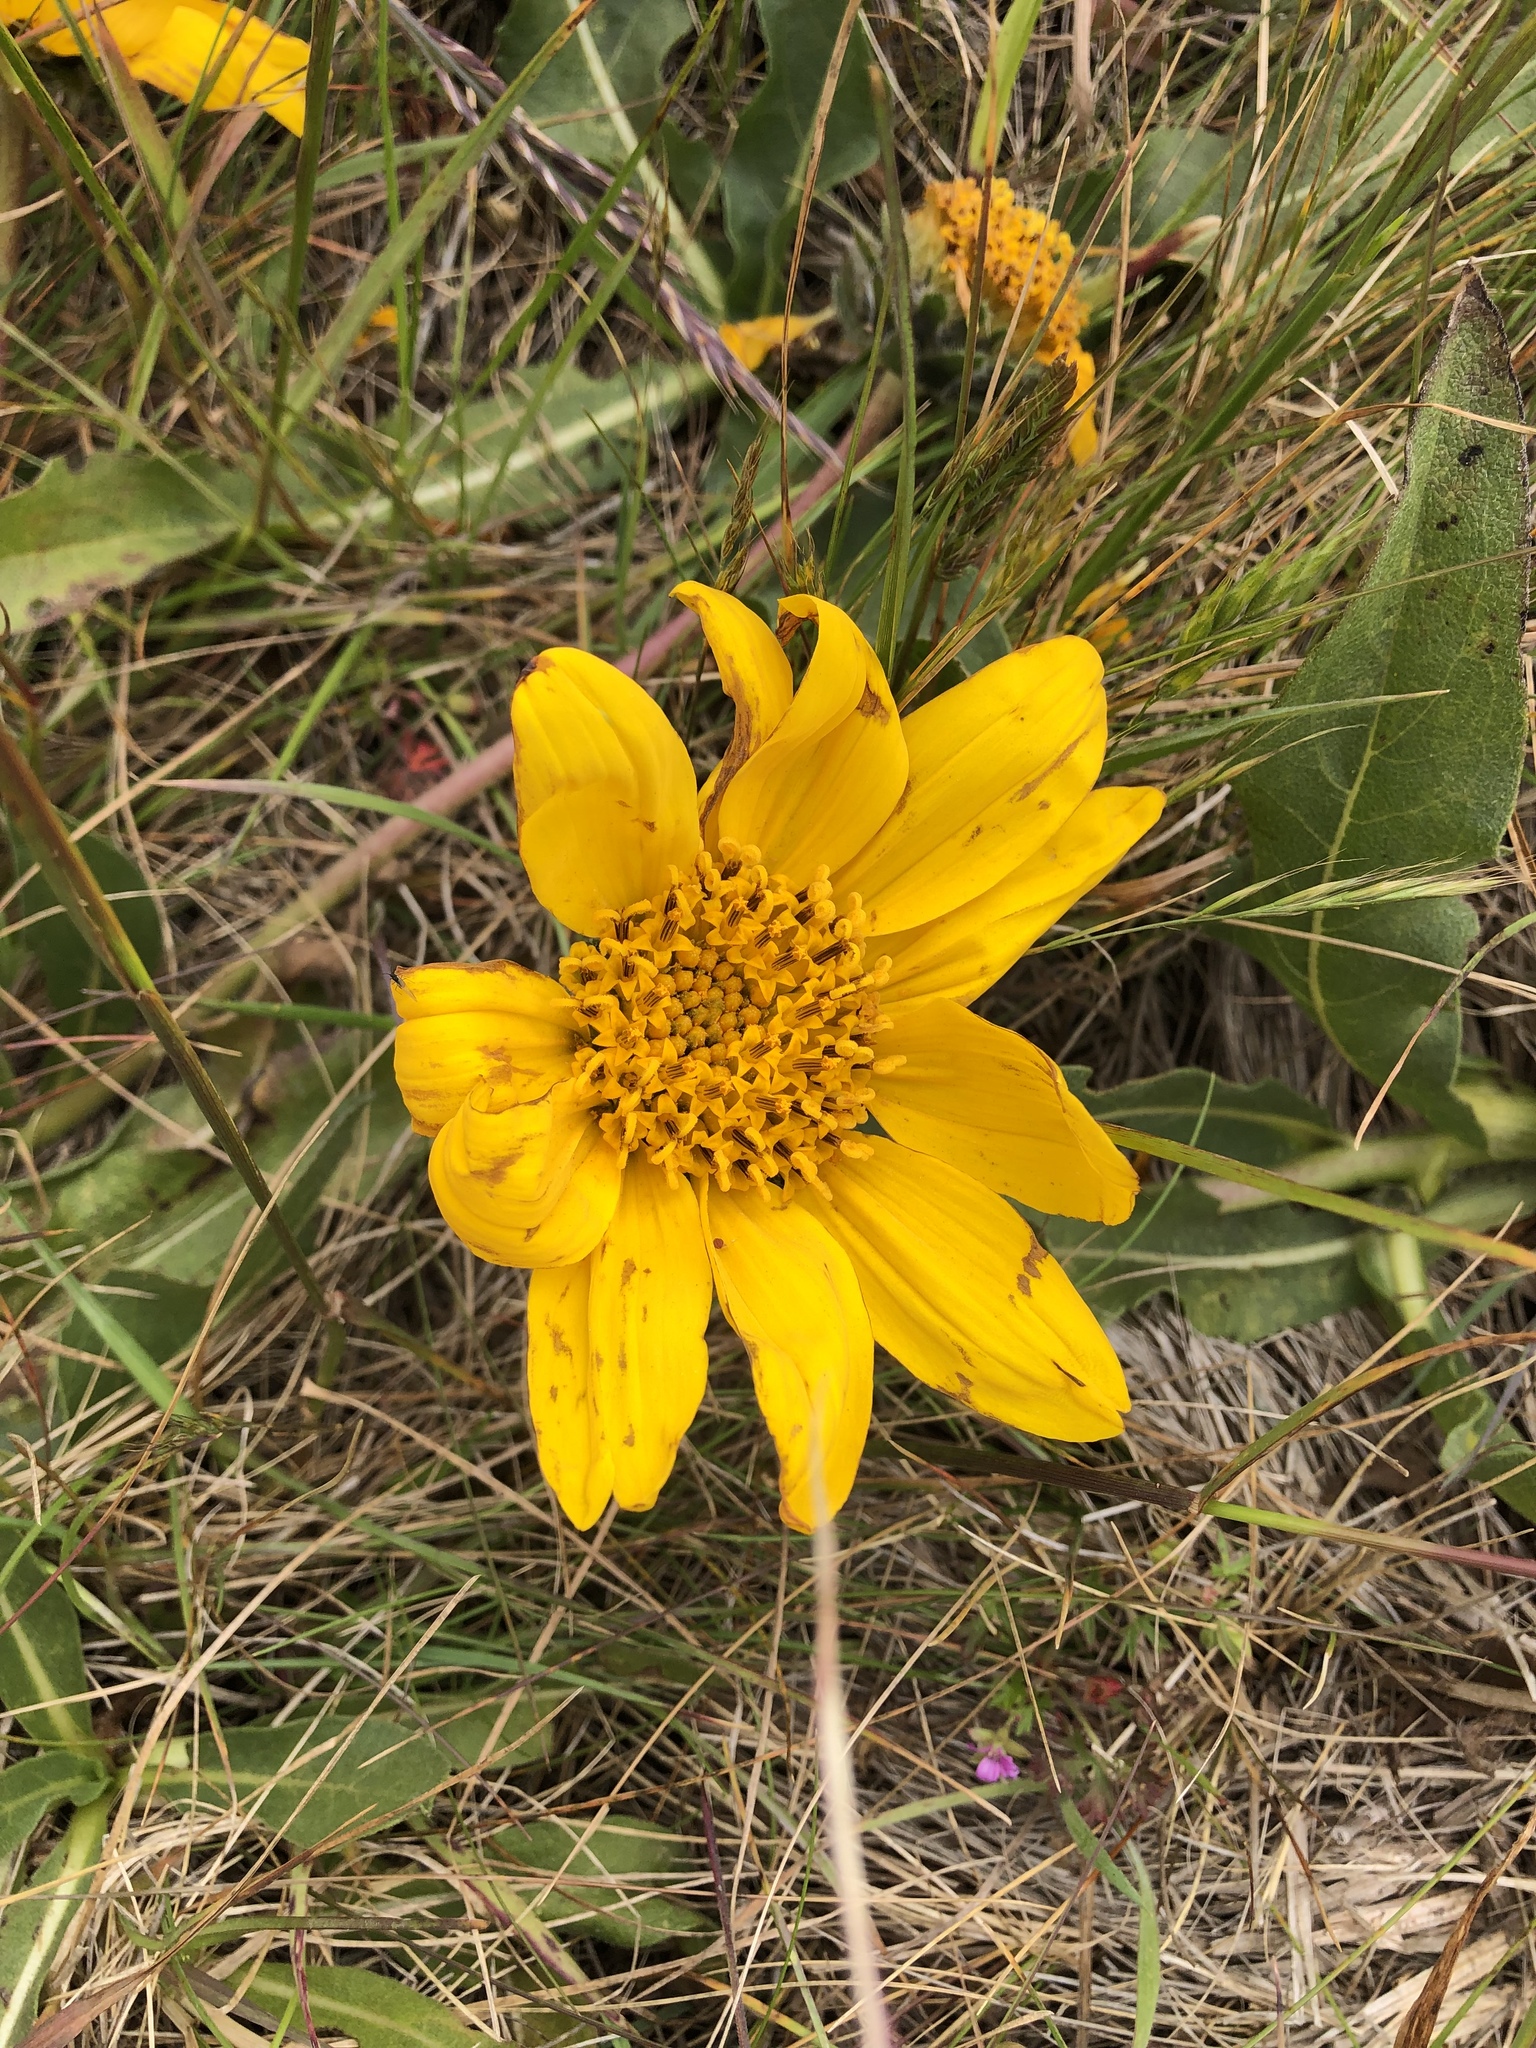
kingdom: Plantae
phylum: Tracheophyta
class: Magnoliopsida
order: Asterales
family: Asteraceae
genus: Wyethia
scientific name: Wyethia angustifolia
